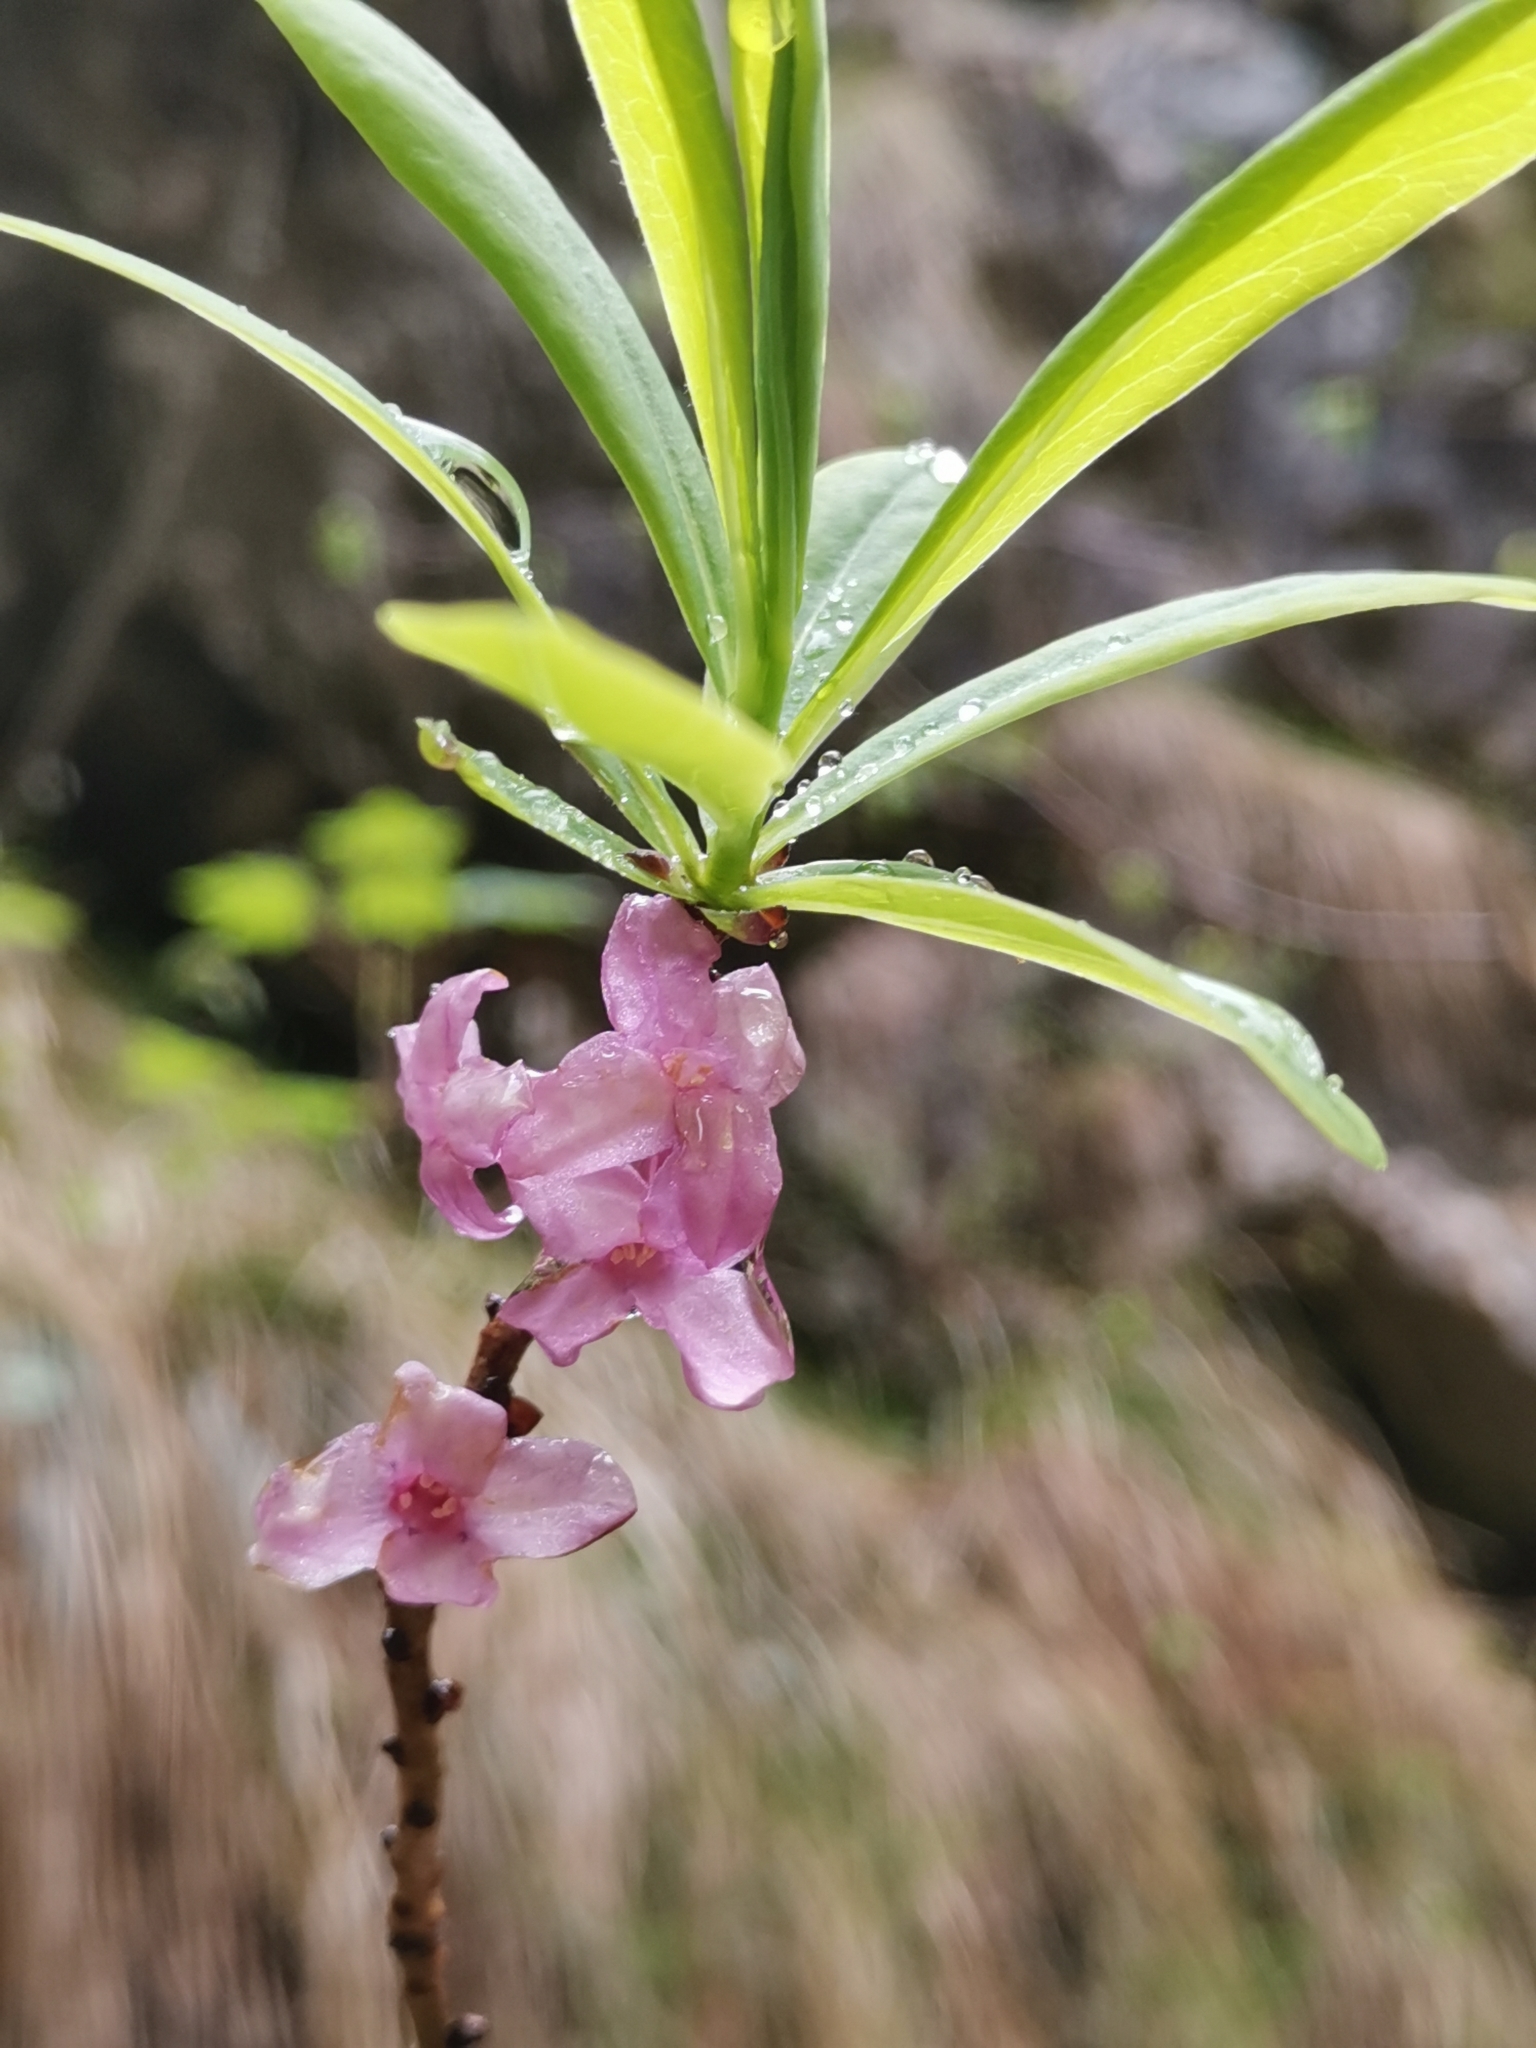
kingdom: Plantae
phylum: Tracheophyta
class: Magnoliopsida
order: Malvales
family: Thymelaeaceae
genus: Daphne
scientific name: Daphne mezereum
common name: Mezereon
